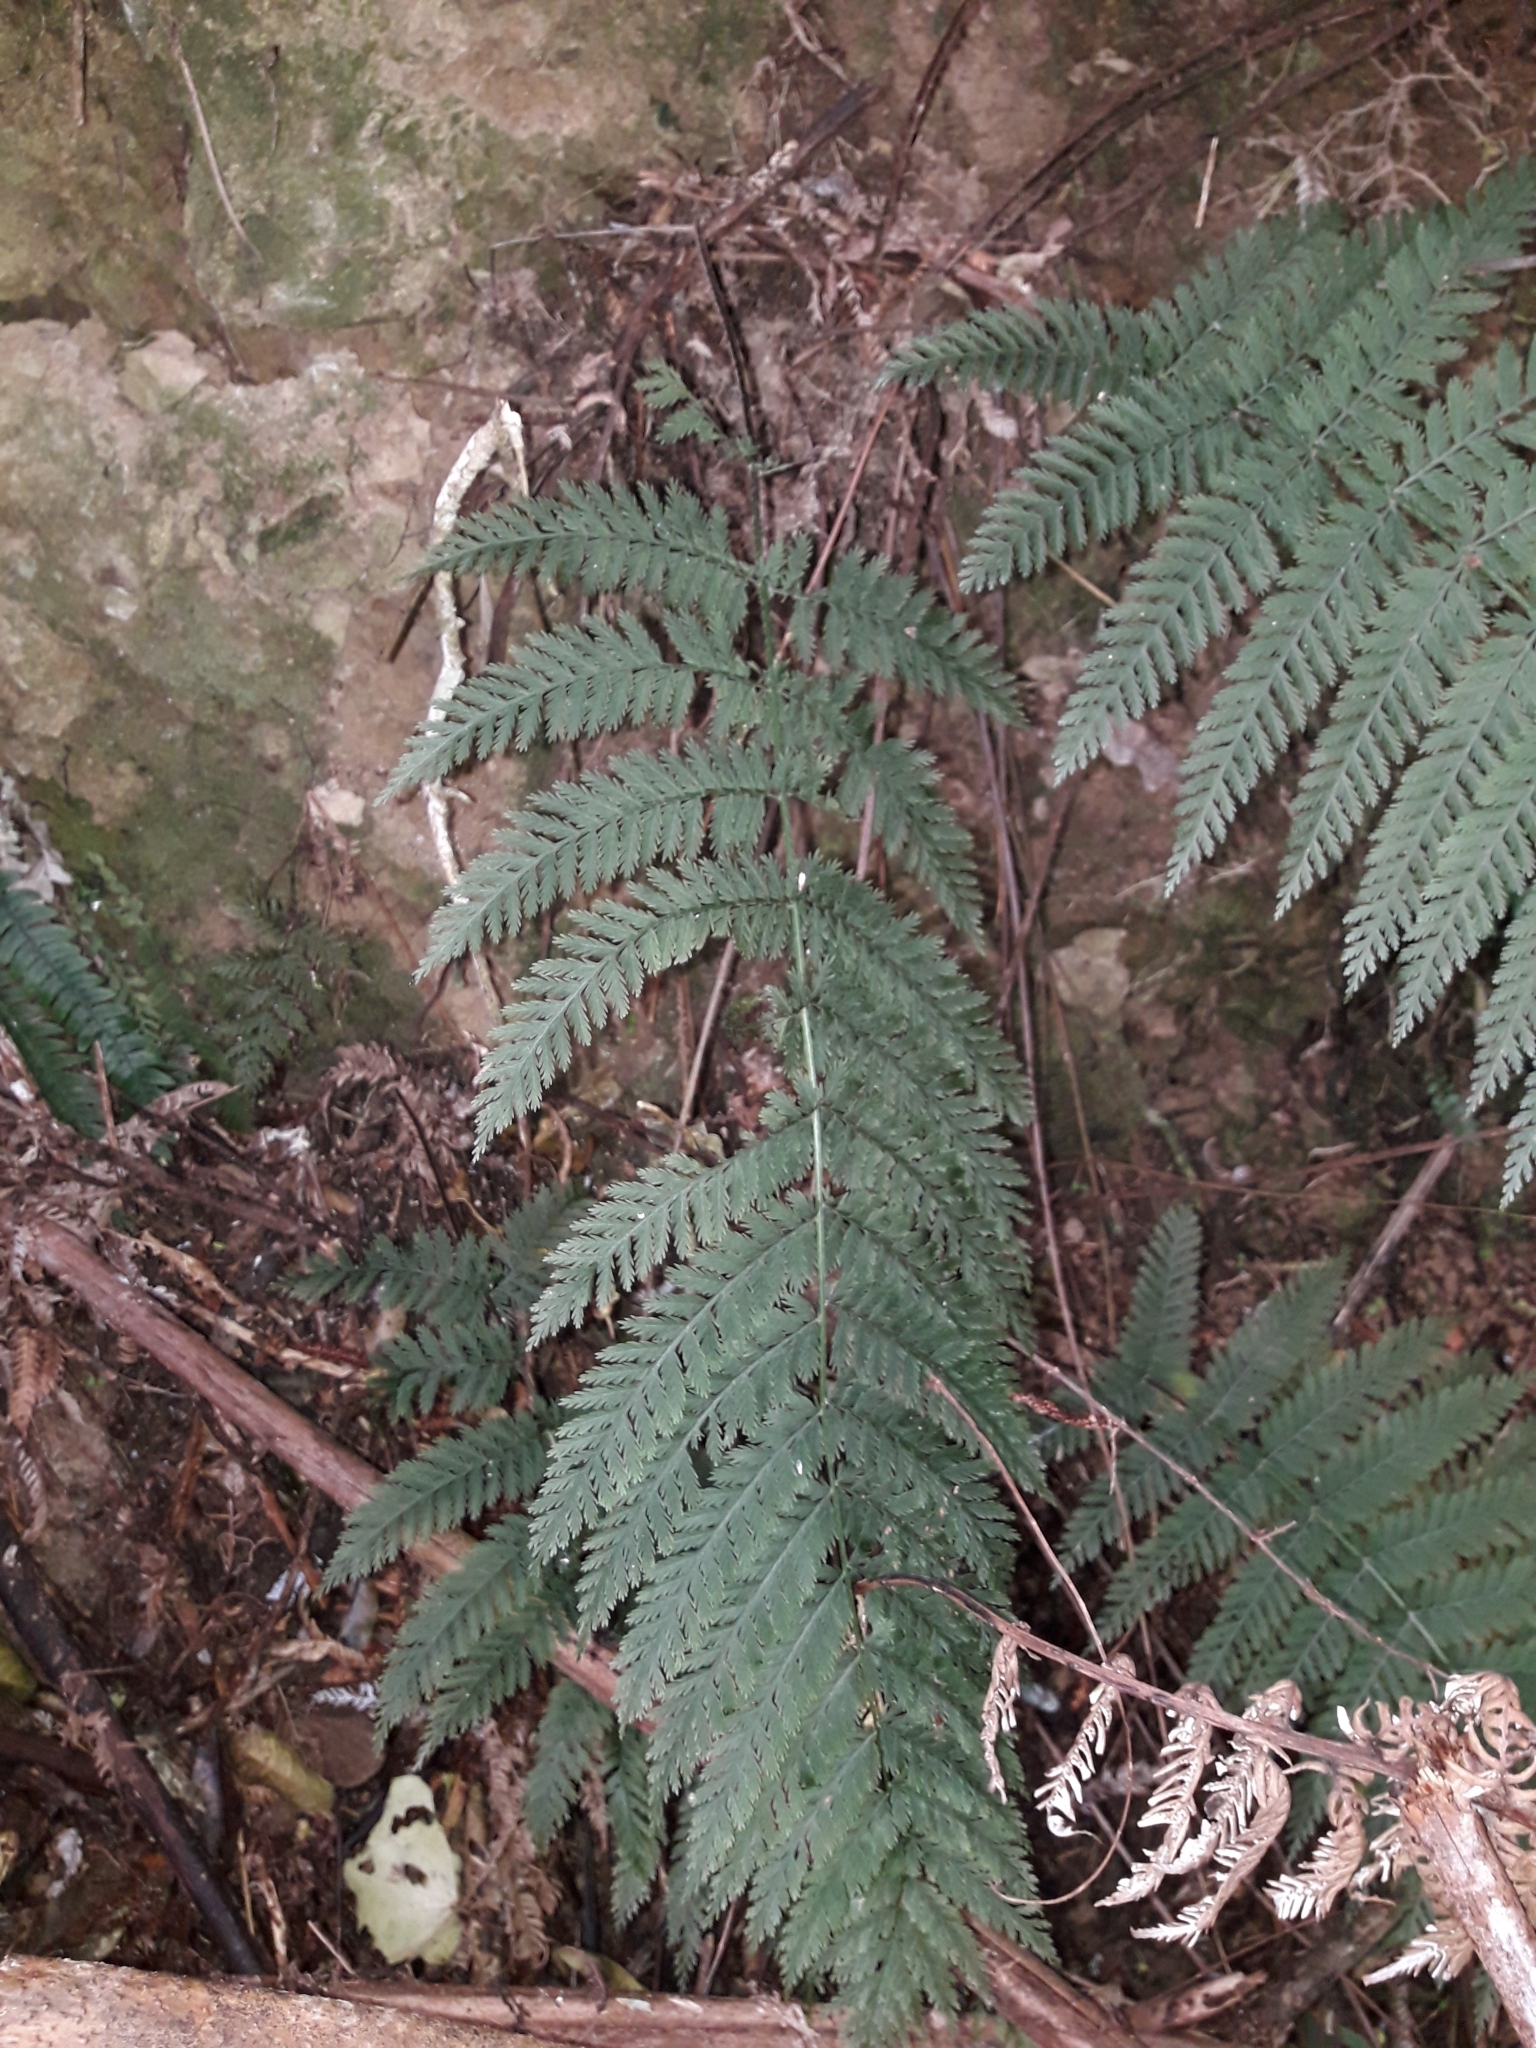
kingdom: Plantae
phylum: Tracheophyta
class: Polypodiopsida
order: Osmundales
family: Osmundaceae
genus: Leptopteris
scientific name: Leptopteris hymenophylloides
